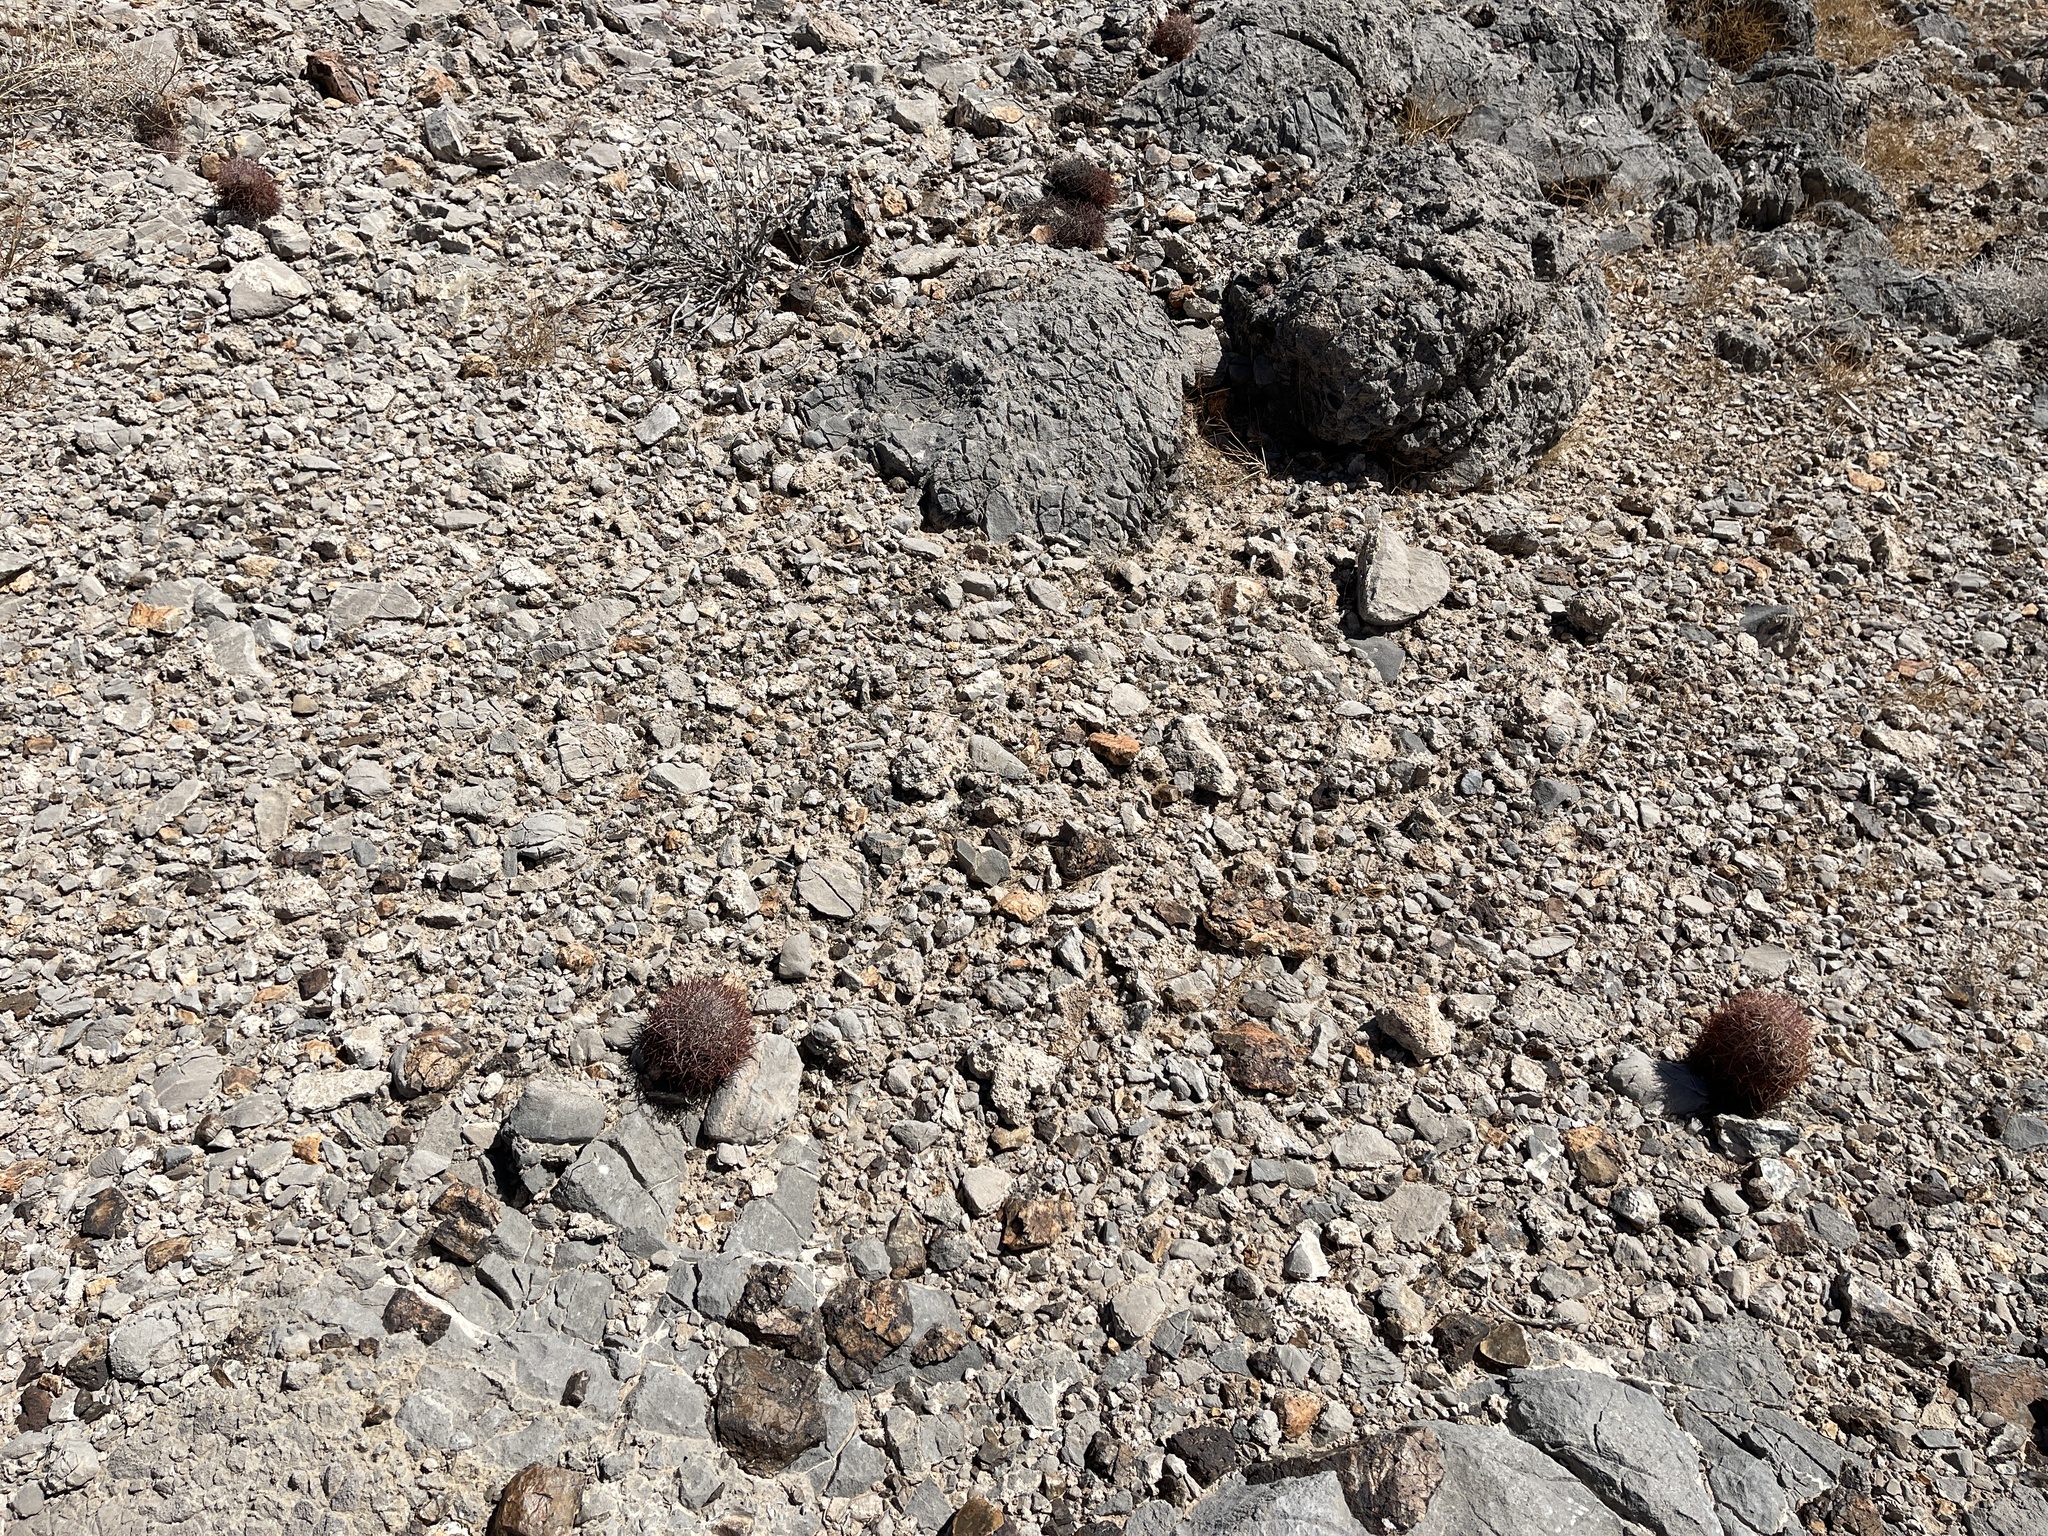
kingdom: Plantae
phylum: Tracheophyta
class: Magnoliopsida
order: Caryophyllales
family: Cactaceae
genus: Sclerocactus
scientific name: Sclerocactus johnsonii
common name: Eight-spine fishhook cactus
